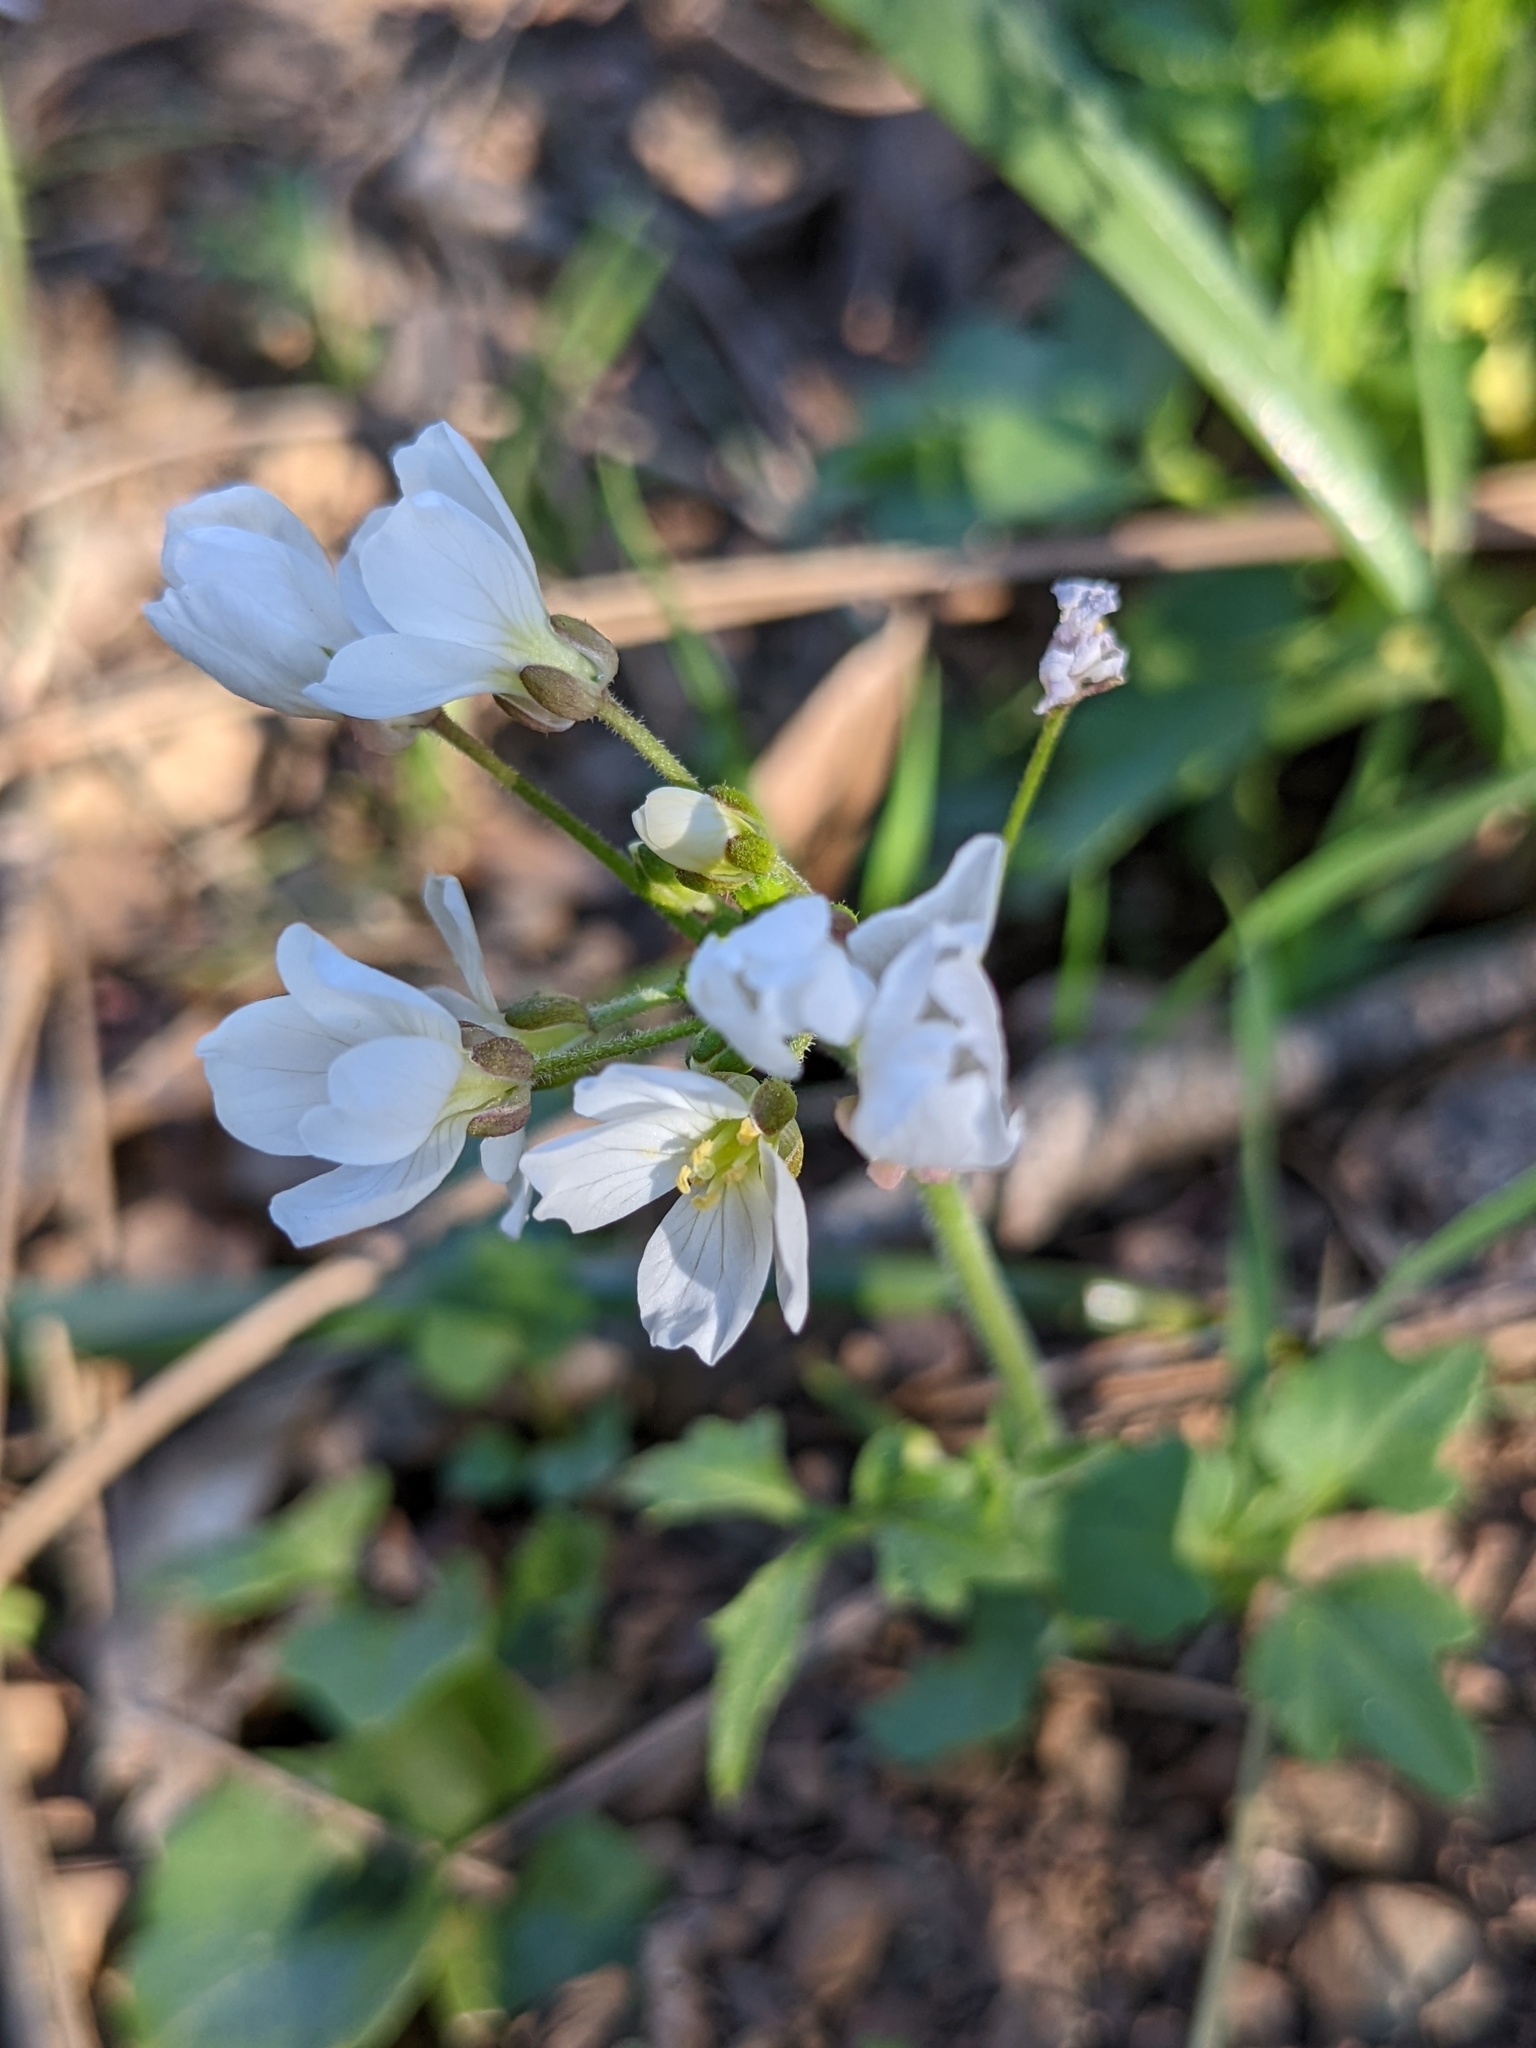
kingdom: Plantae
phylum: Tracheophyta
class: Magnoliopsida
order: Brassicales
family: Brassicaceae
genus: Cardamine
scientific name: Cardamine californica
